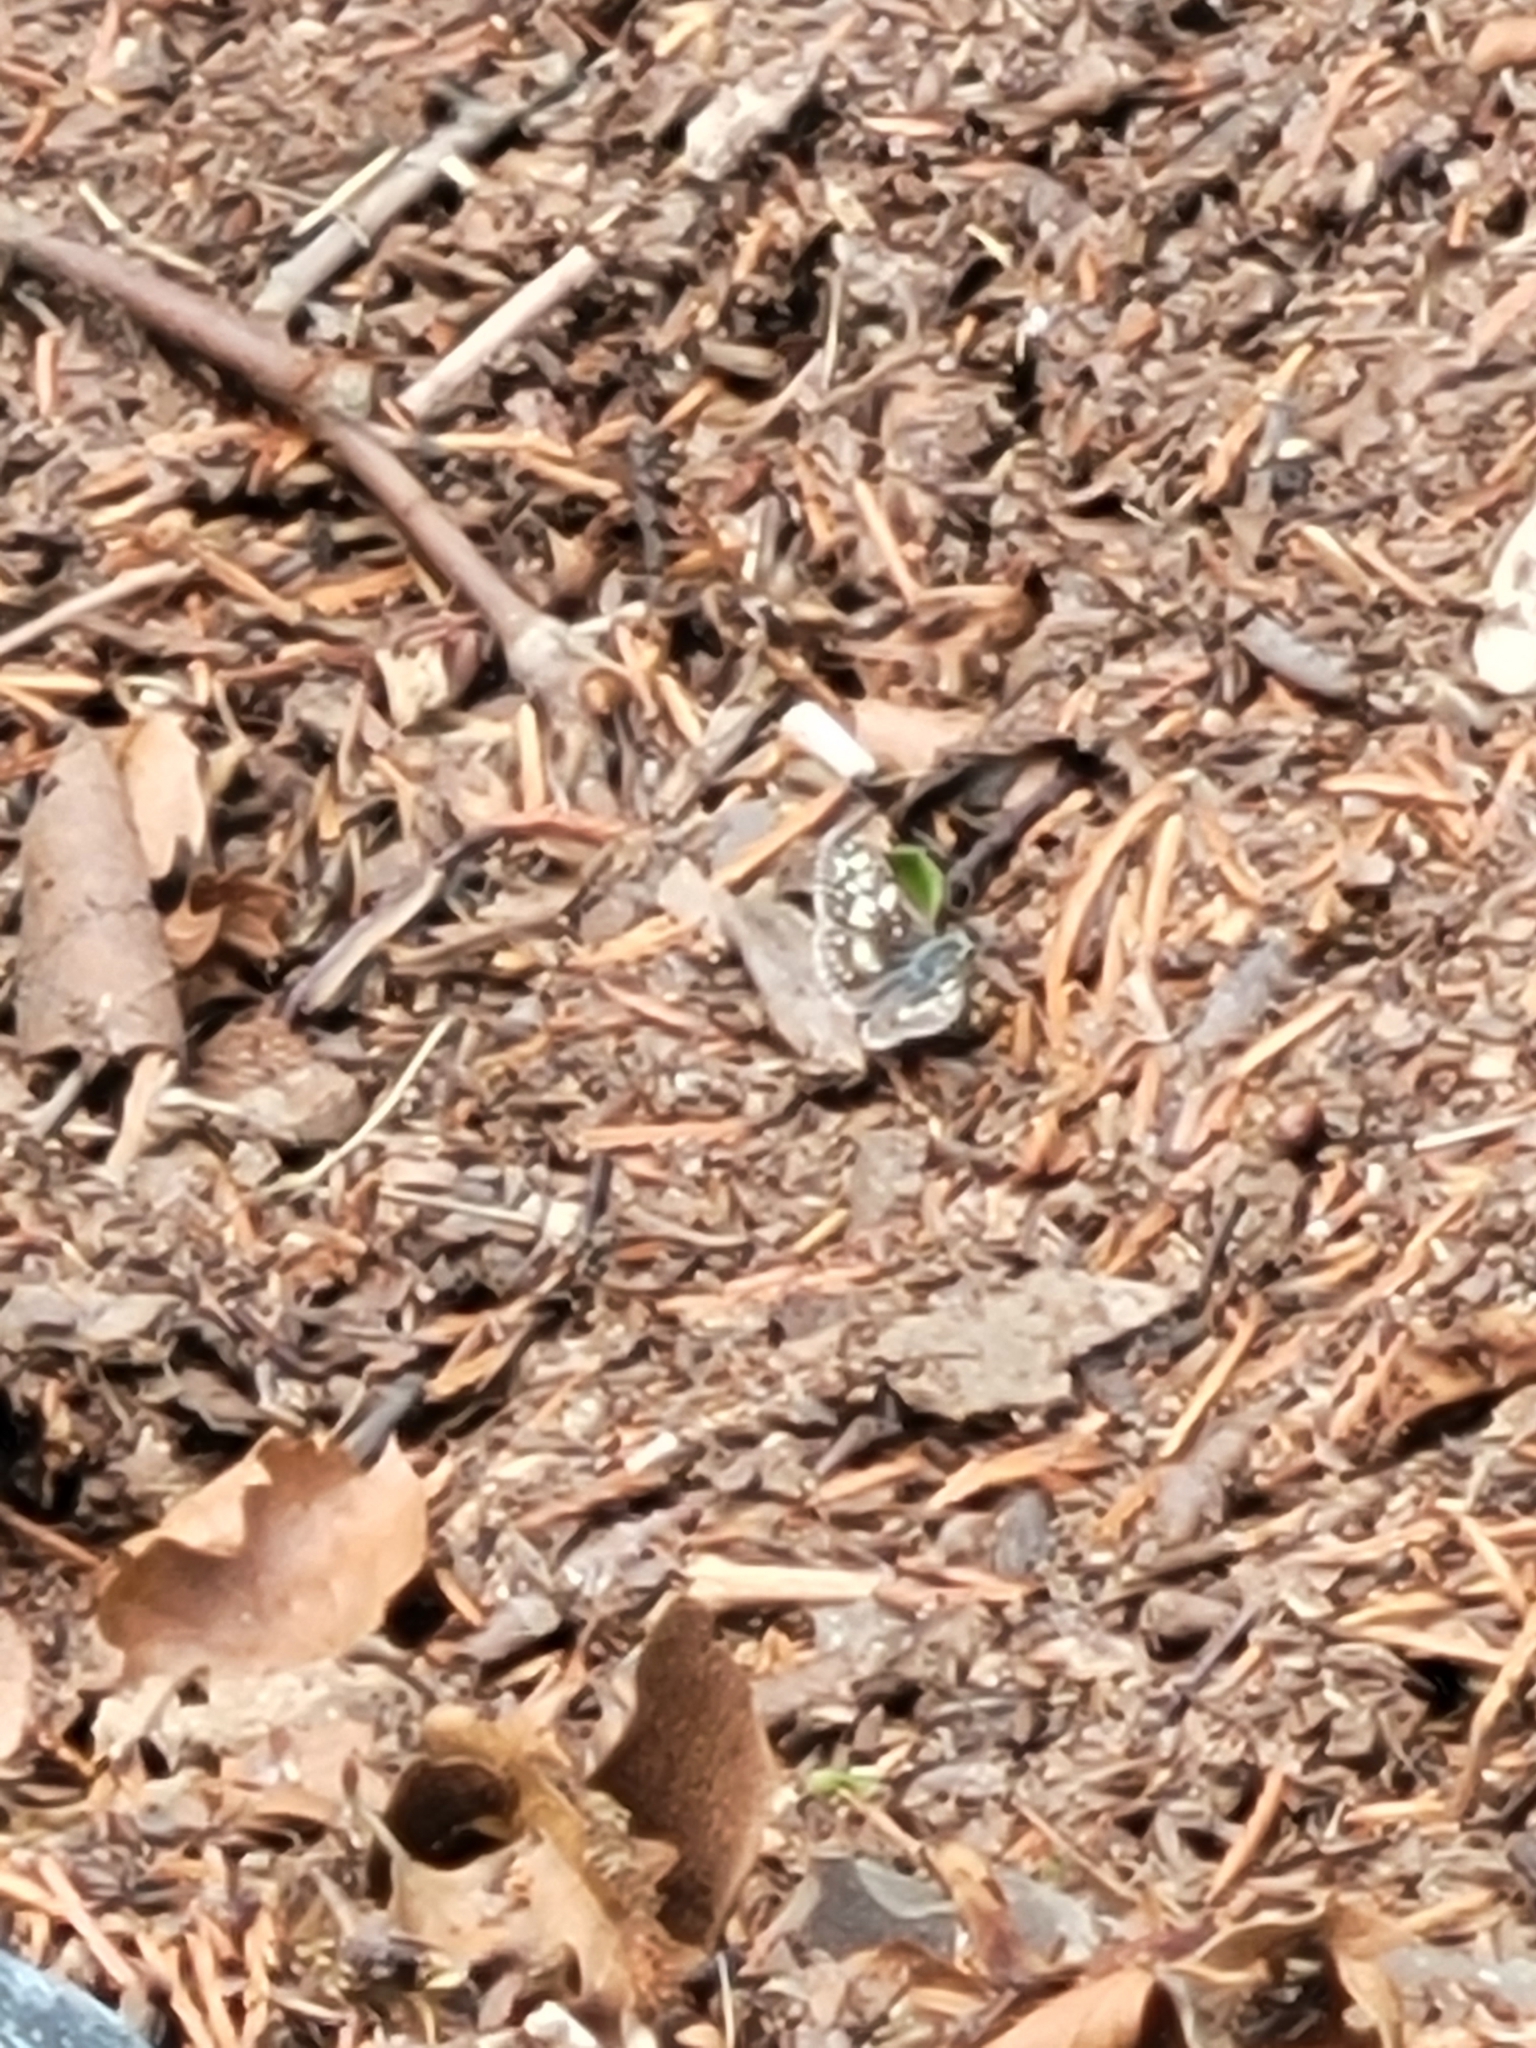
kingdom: Animalia
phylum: Arthropoda
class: Insecta
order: Lepidoptera
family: Hesperiidae
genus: Burnsius
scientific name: Burnsius communis
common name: Common checkered-skipper
